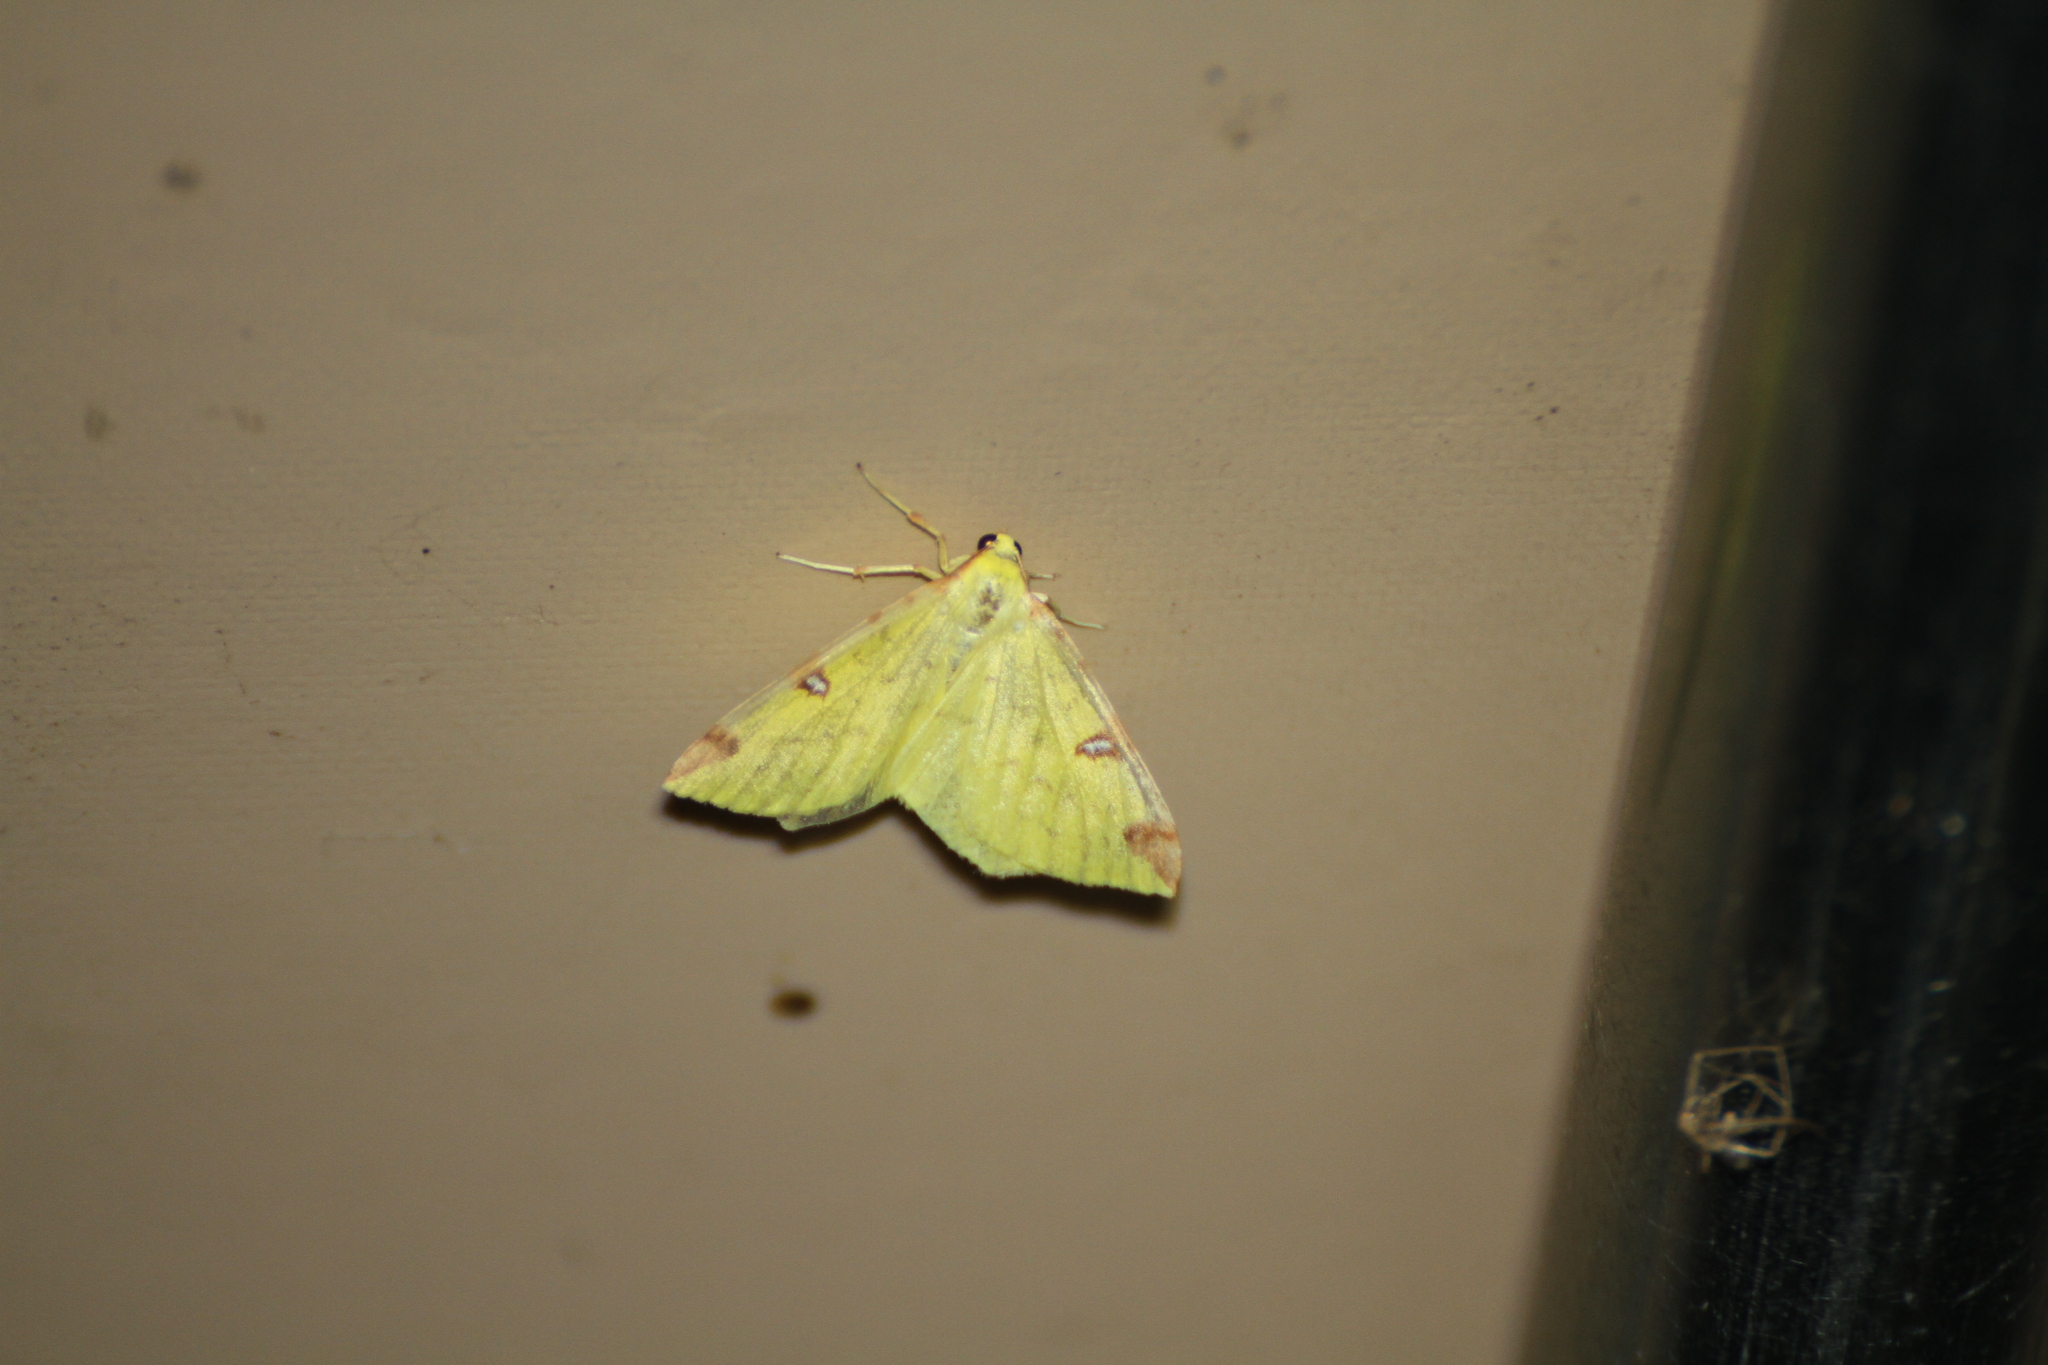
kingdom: Animalia
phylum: Arthropoda
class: Insecta
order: Lepidoptera
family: Geometridae
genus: Opisthograptis
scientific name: Opisthograptis luteolata
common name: Brimstone moth
